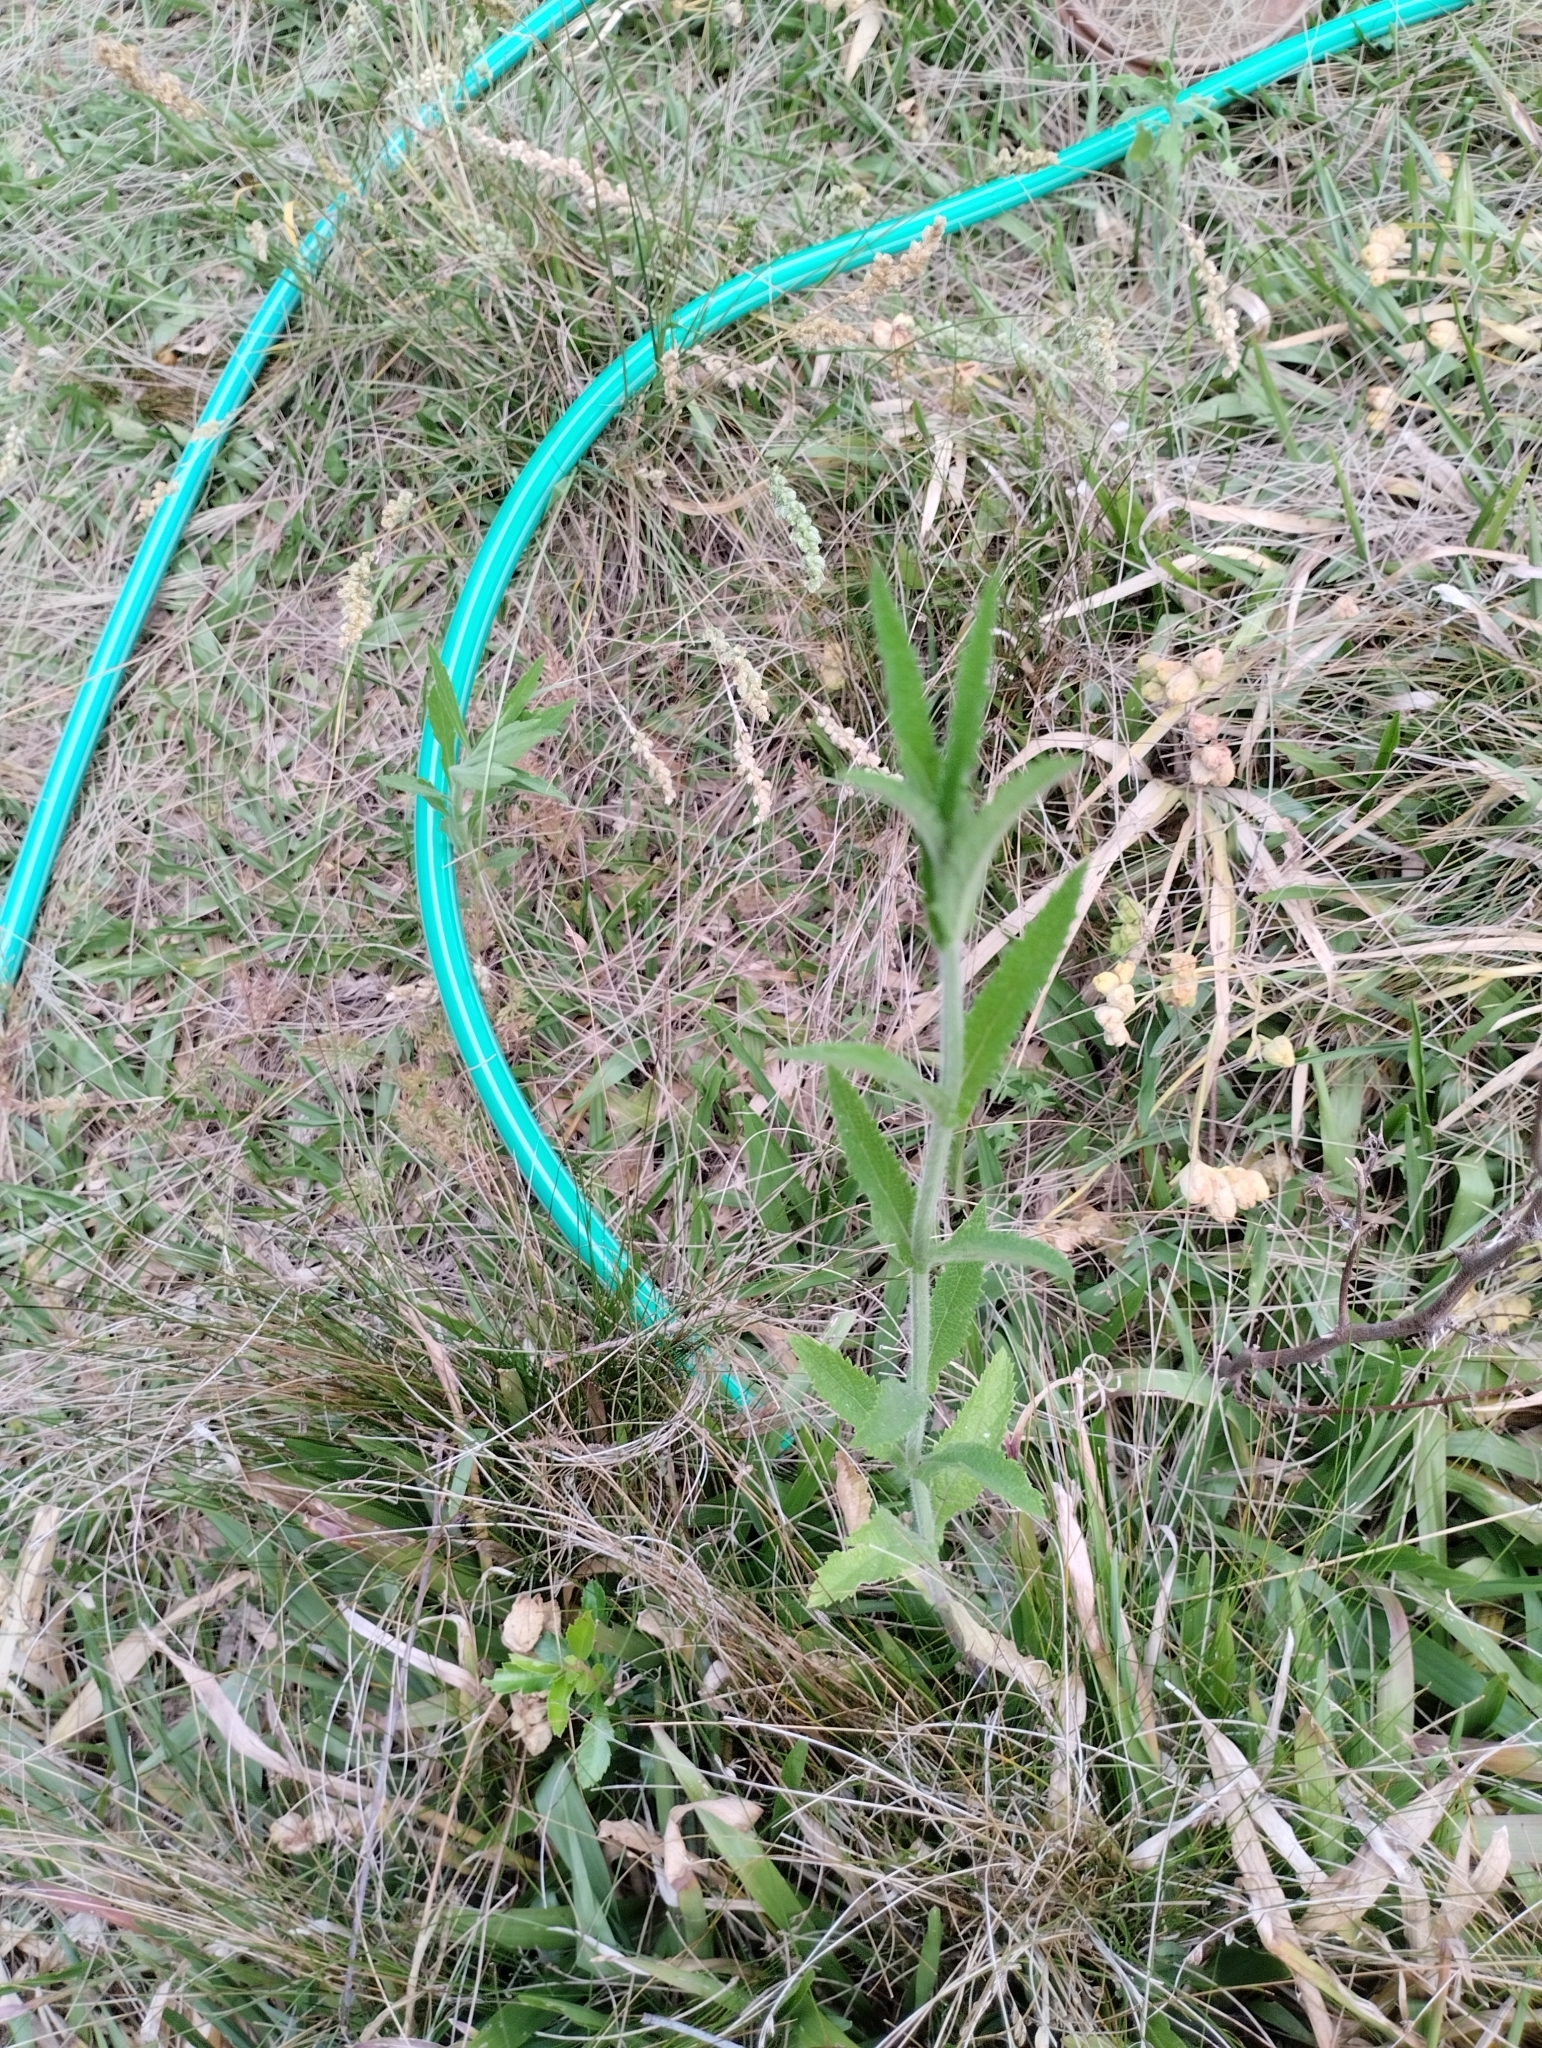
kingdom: Plantae
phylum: Tracheophyta
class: Magnoliopsida
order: Lamiales
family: Verbenaceae
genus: Verbena
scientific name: Verbena bonariensis
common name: Purpletop vervain
